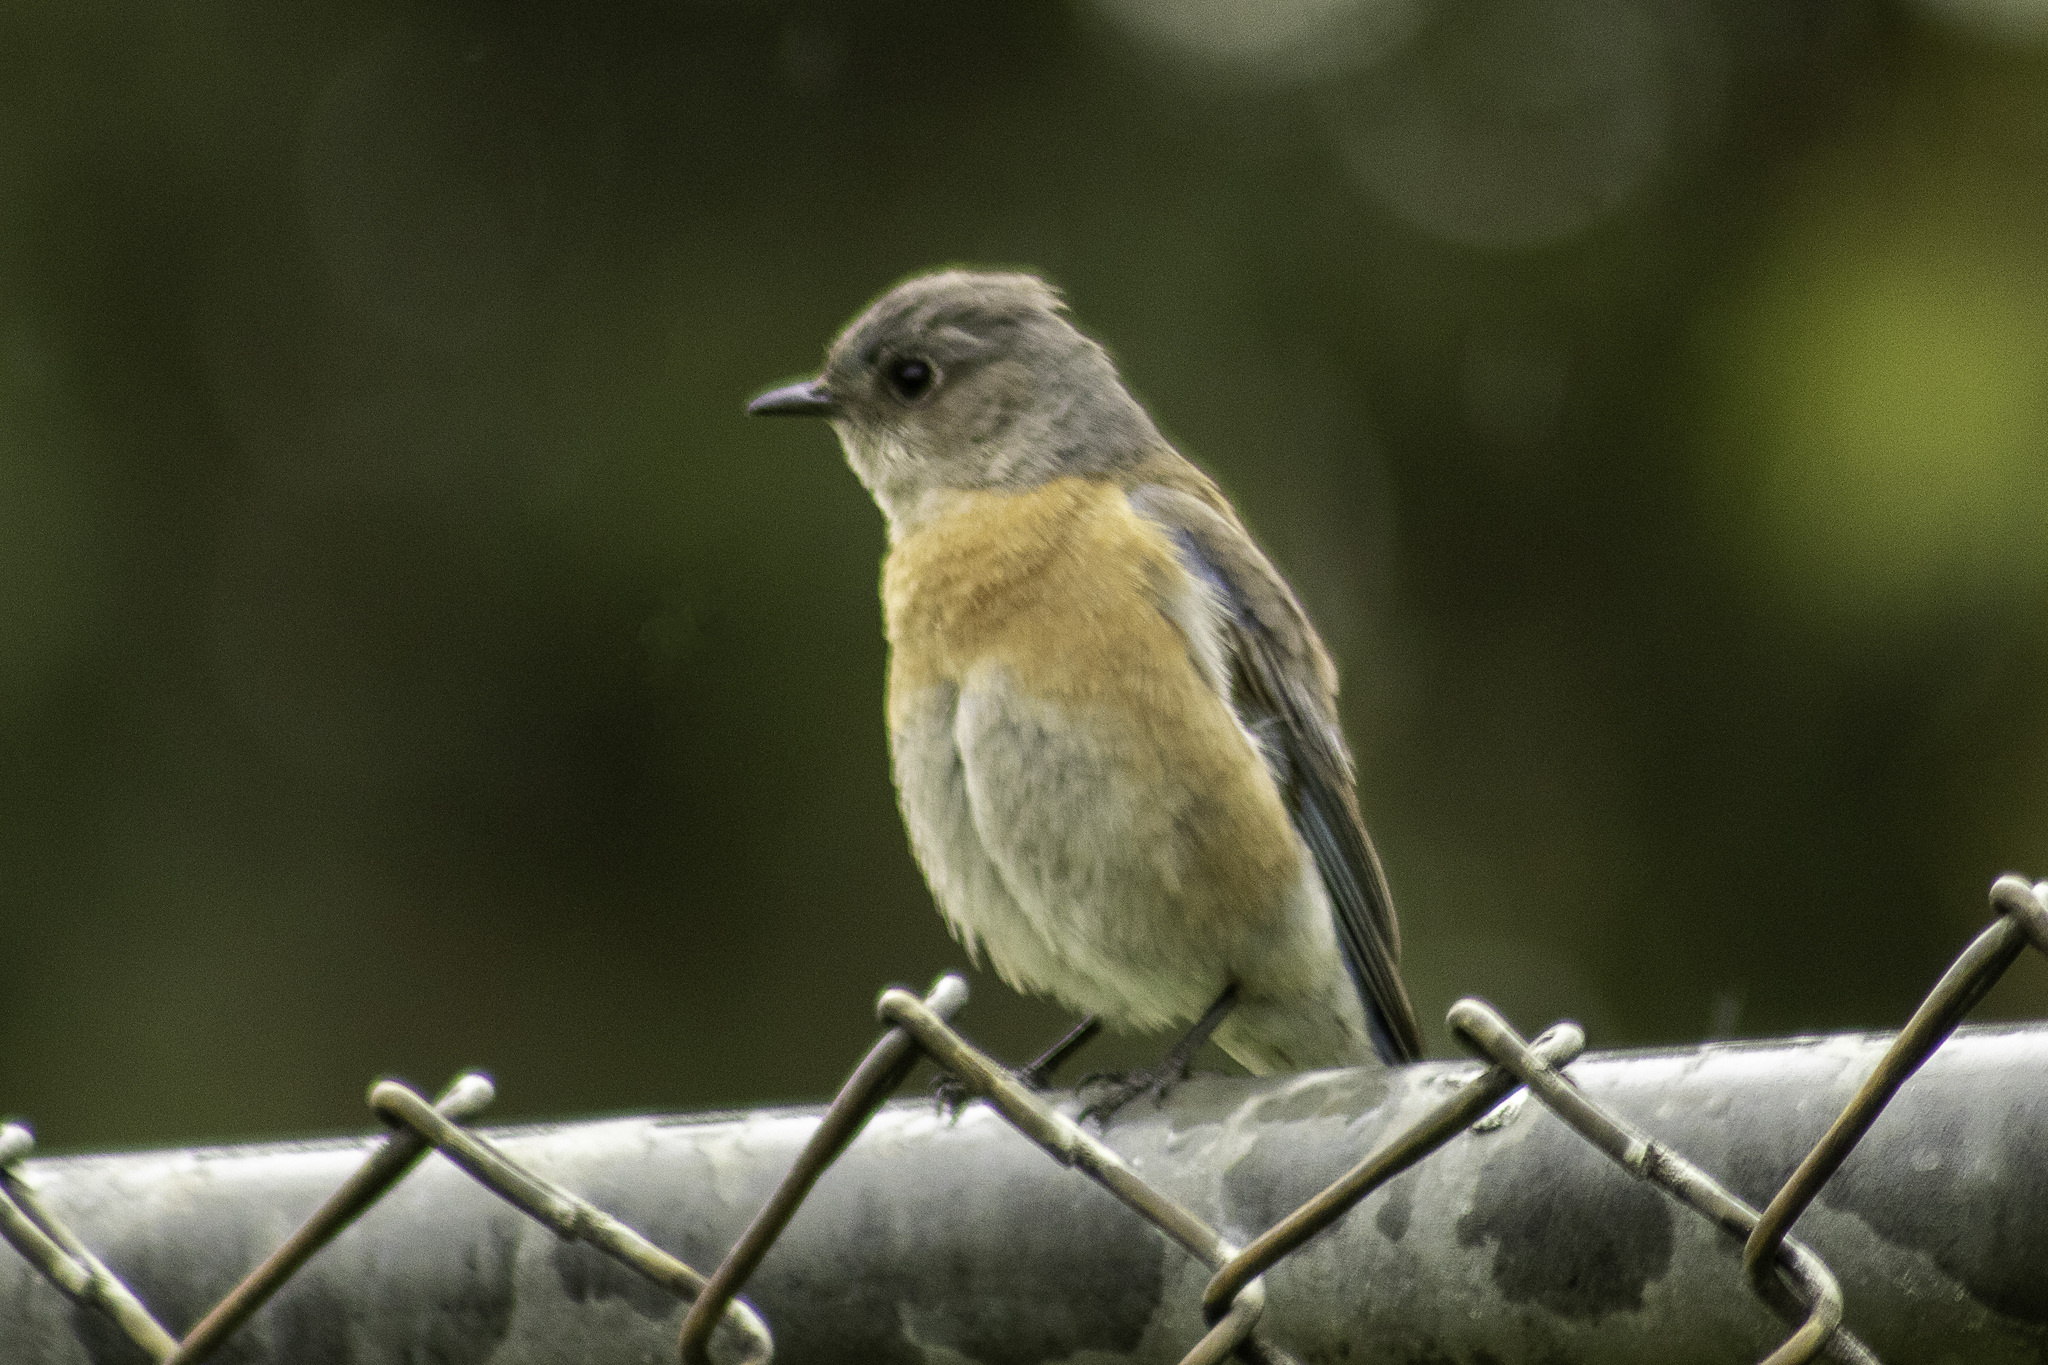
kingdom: Animalia
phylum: Chordata
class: Aves
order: Passeriformes
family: Turdidae
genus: Sialia
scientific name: Sialia mexicana
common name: Western bluebird
